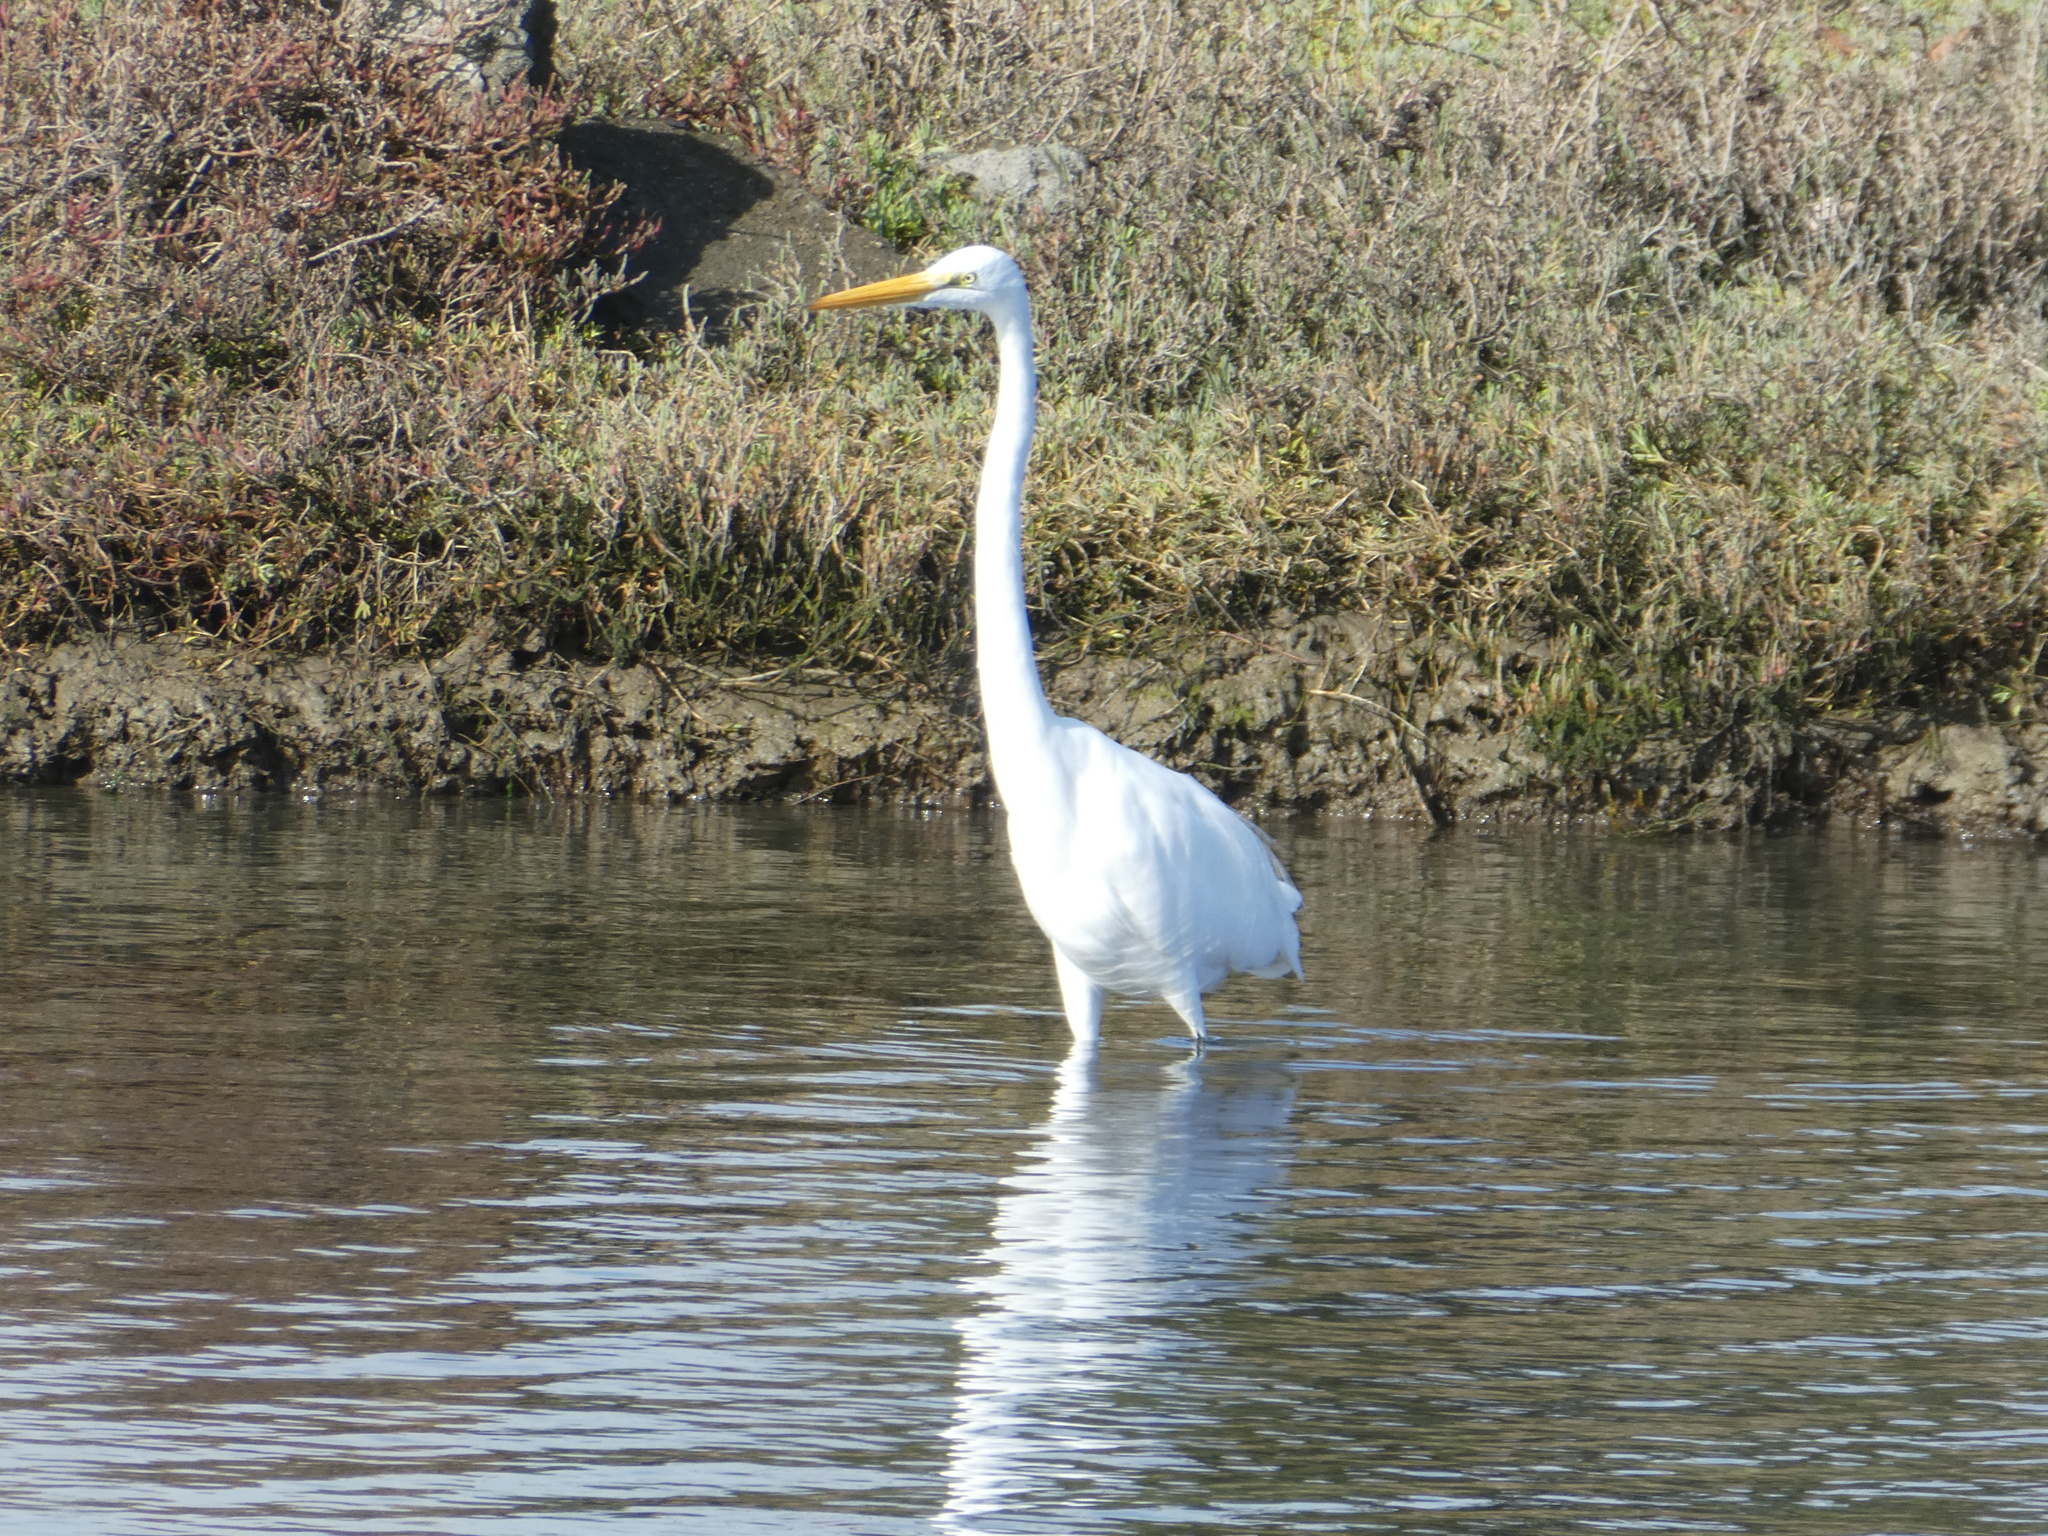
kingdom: Animalia
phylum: Chordata
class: Aves
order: Pelecaniformes
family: Ardeidae
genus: Ardea
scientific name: Ardea alba
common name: Great egret
